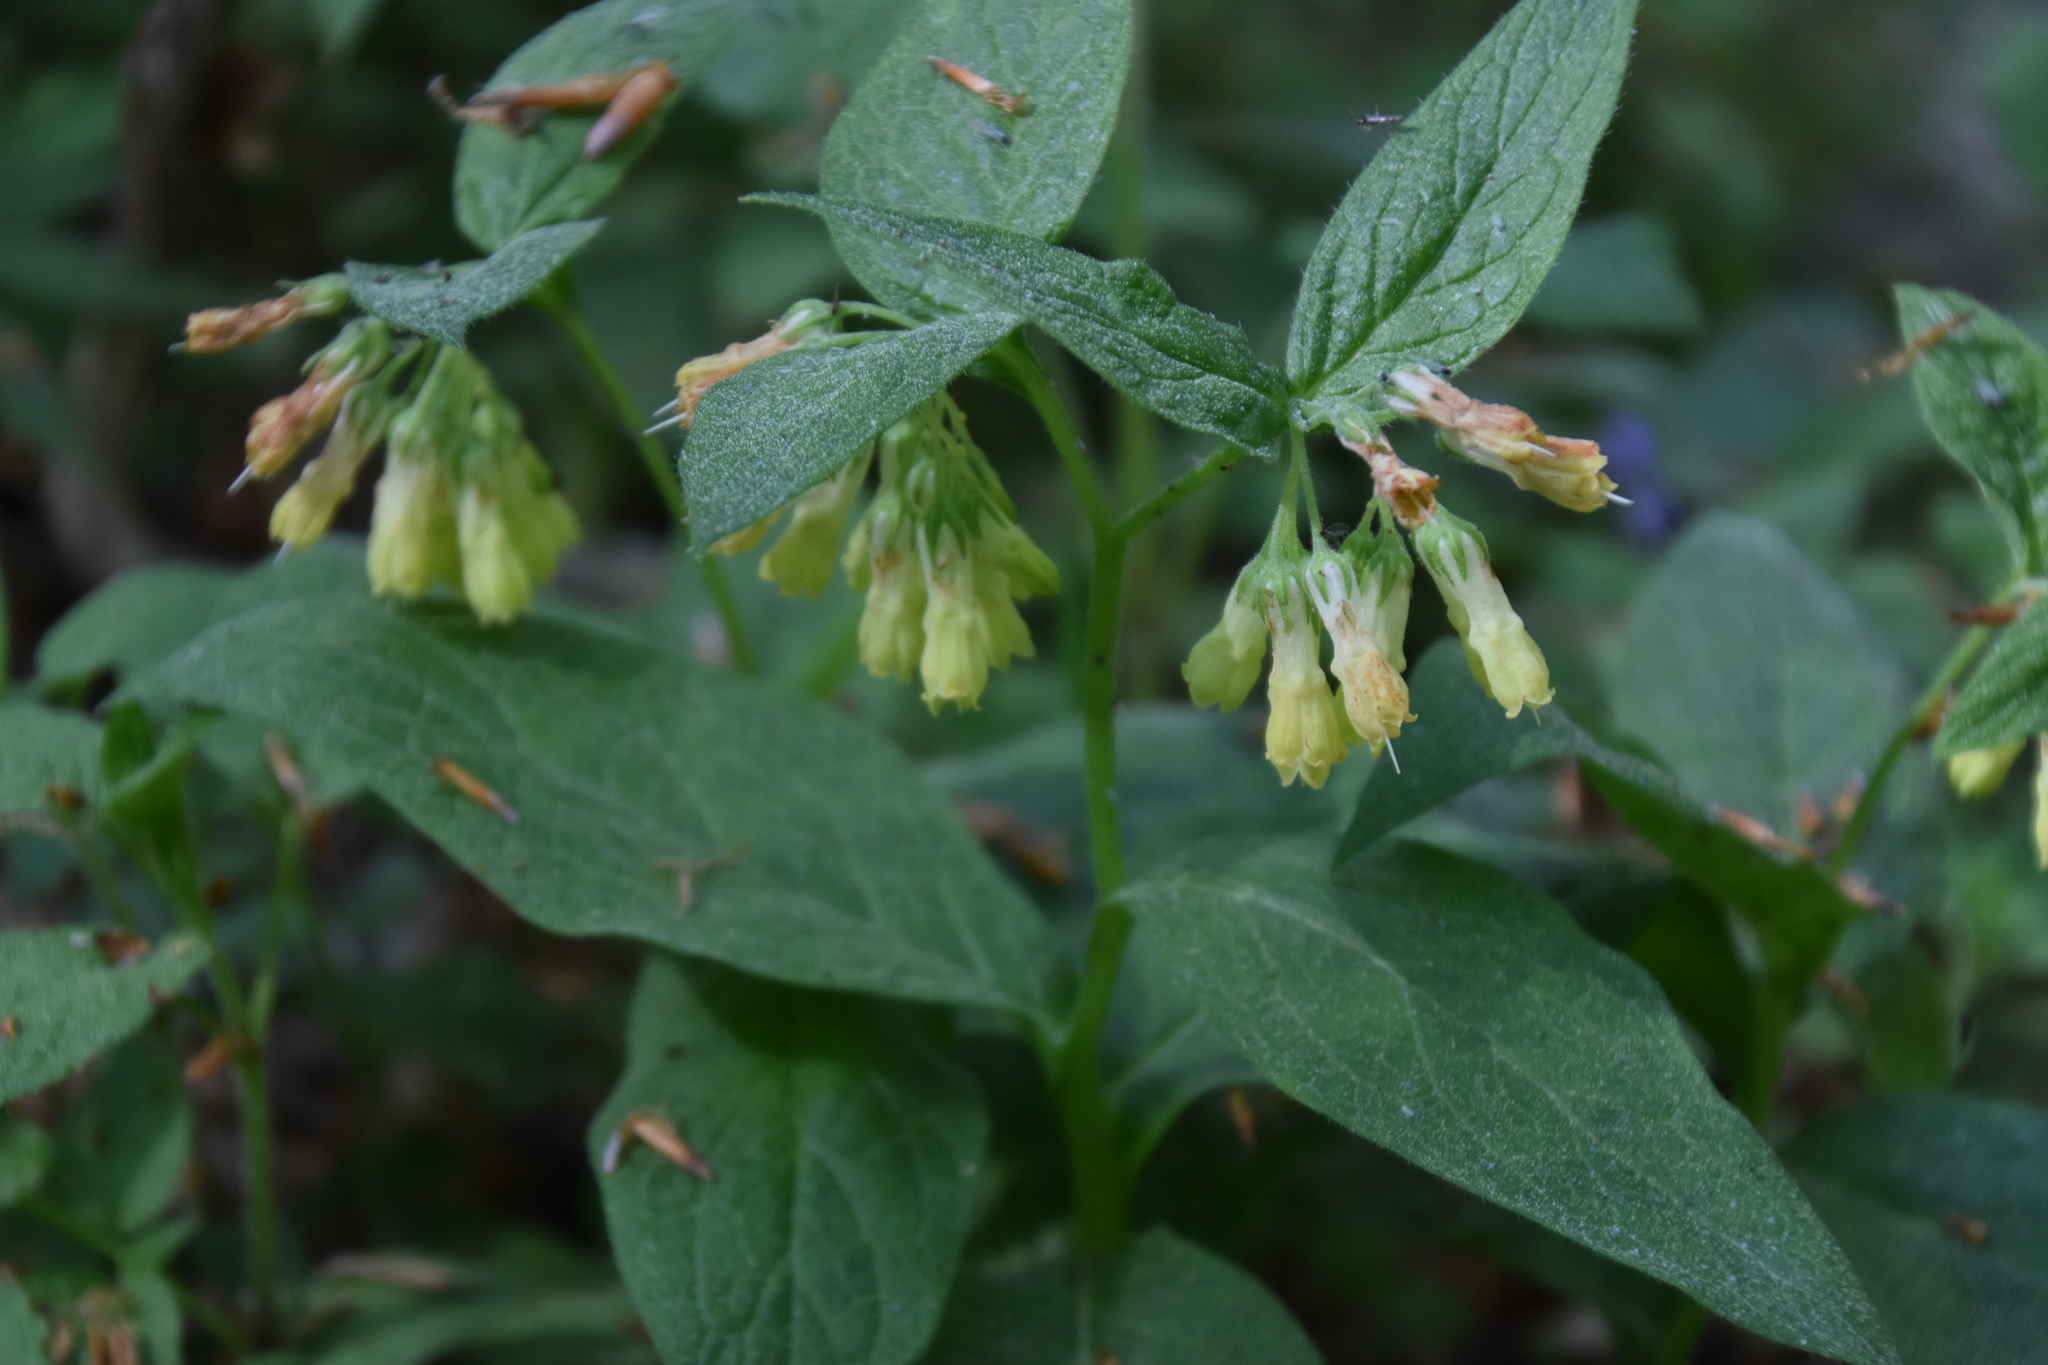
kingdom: Plantae
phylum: Tracheophyta
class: Magnoliopsida
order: Boraginales
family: Boraginaceae
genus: Symphytum
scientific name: Symphytum tuberosum
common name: Tuberous comfrey
